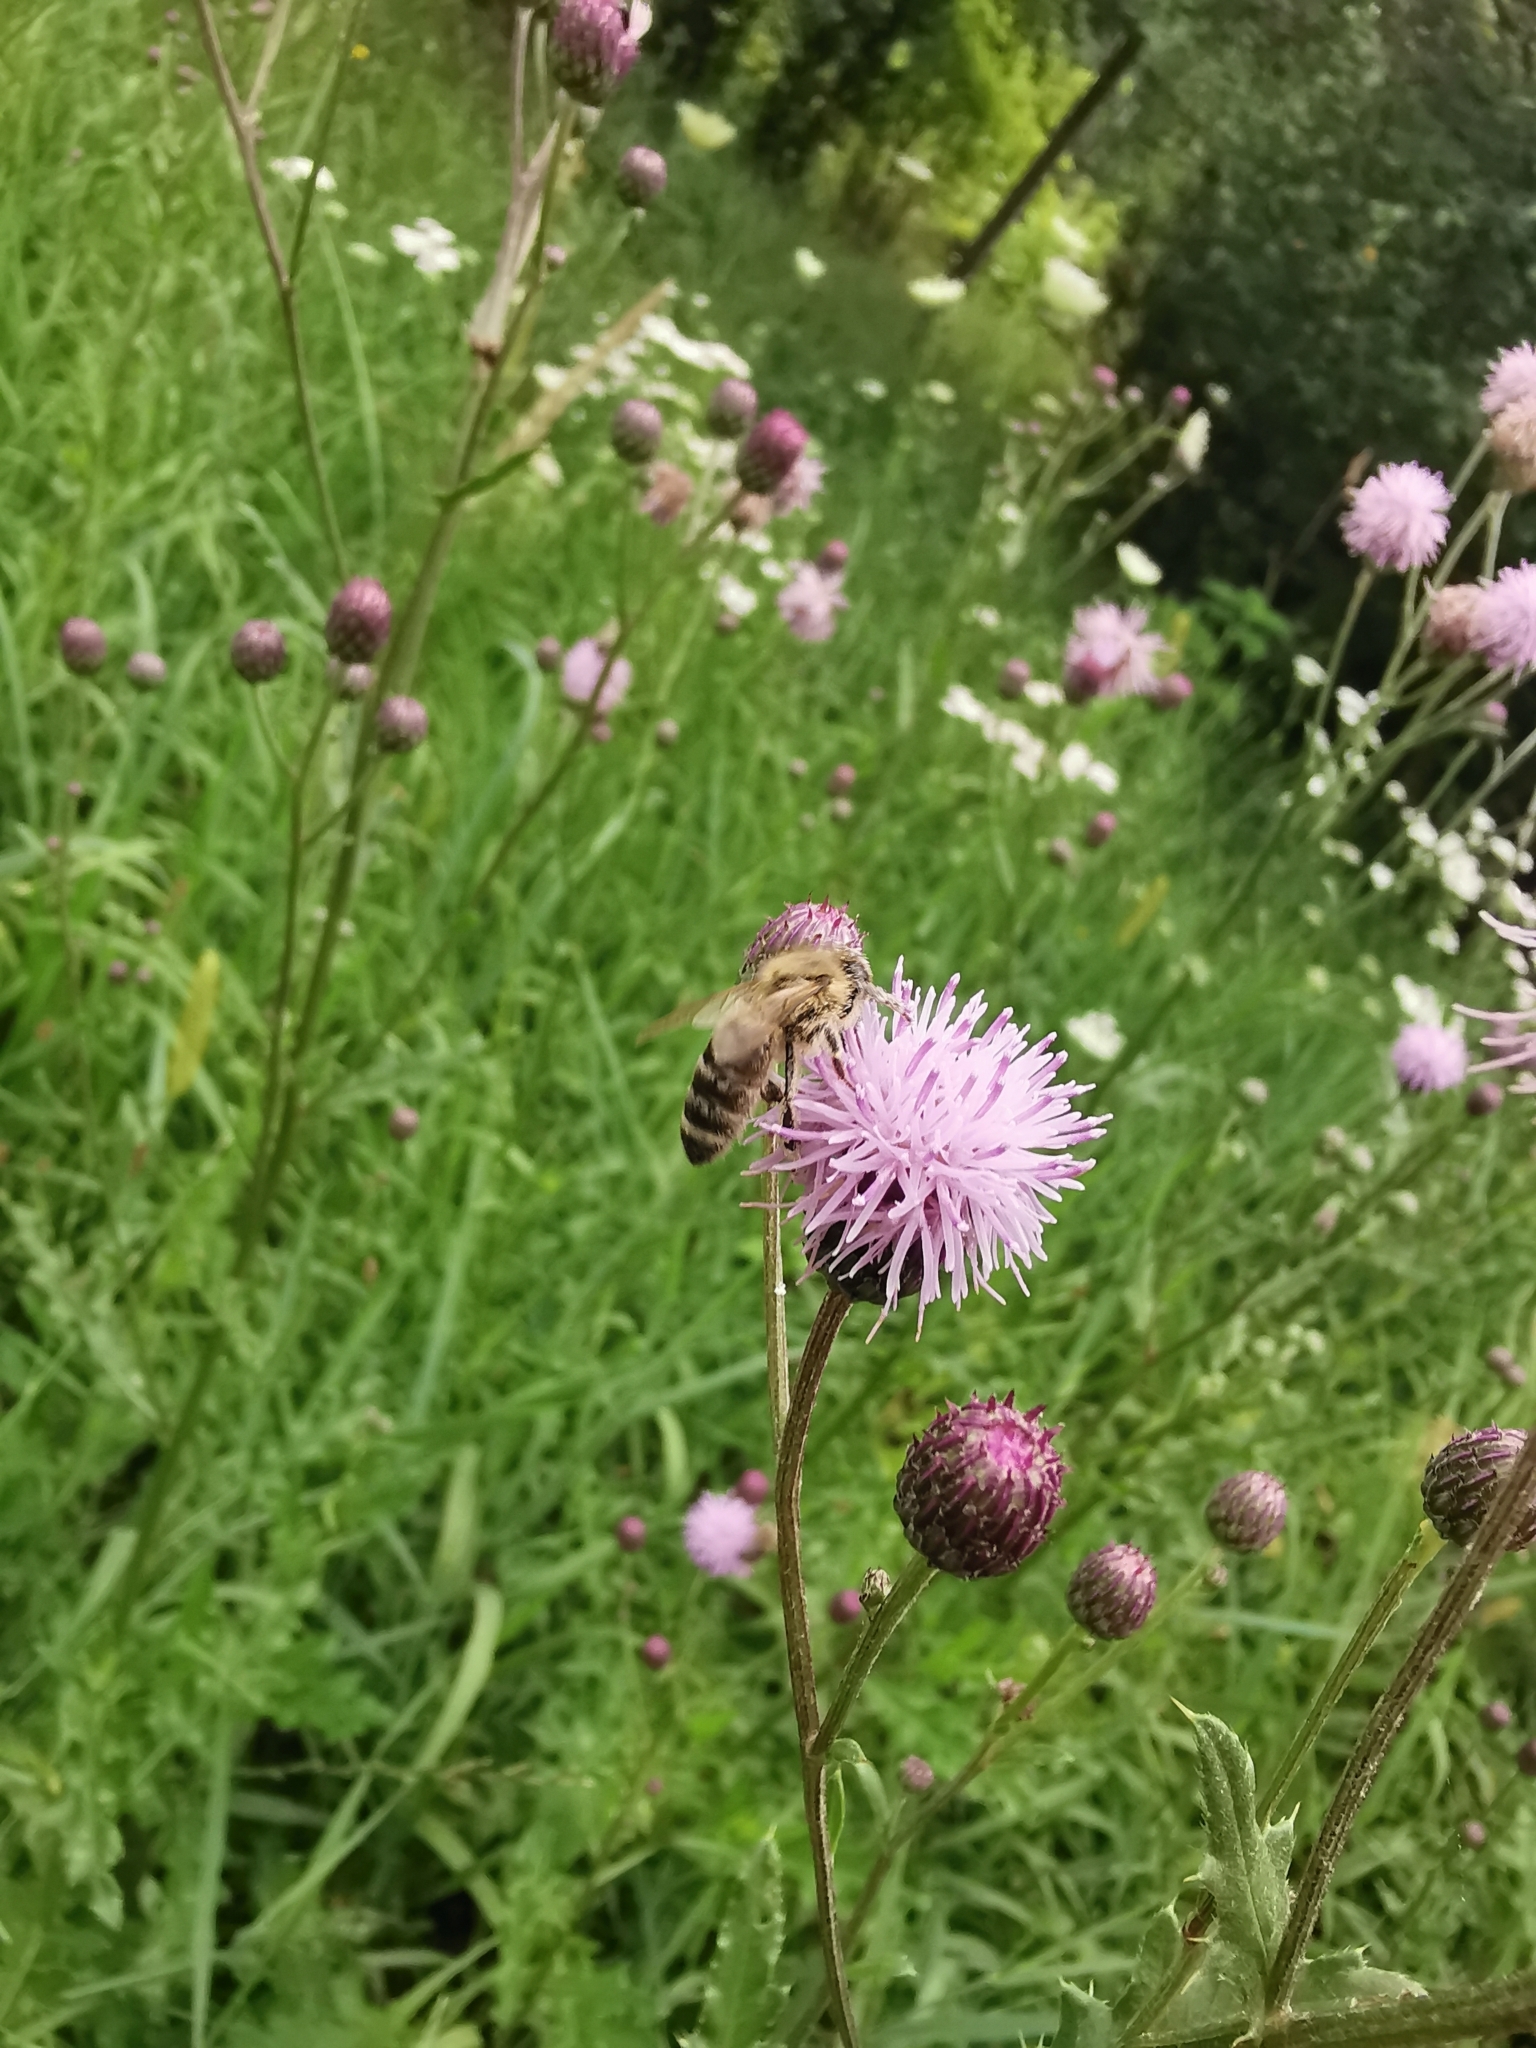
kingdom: Animalia
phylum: Arthropoda
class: Insecta
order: Hymenoptera
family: Apidae
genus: Apis
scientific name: Apis mellifera
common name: Honey bee
